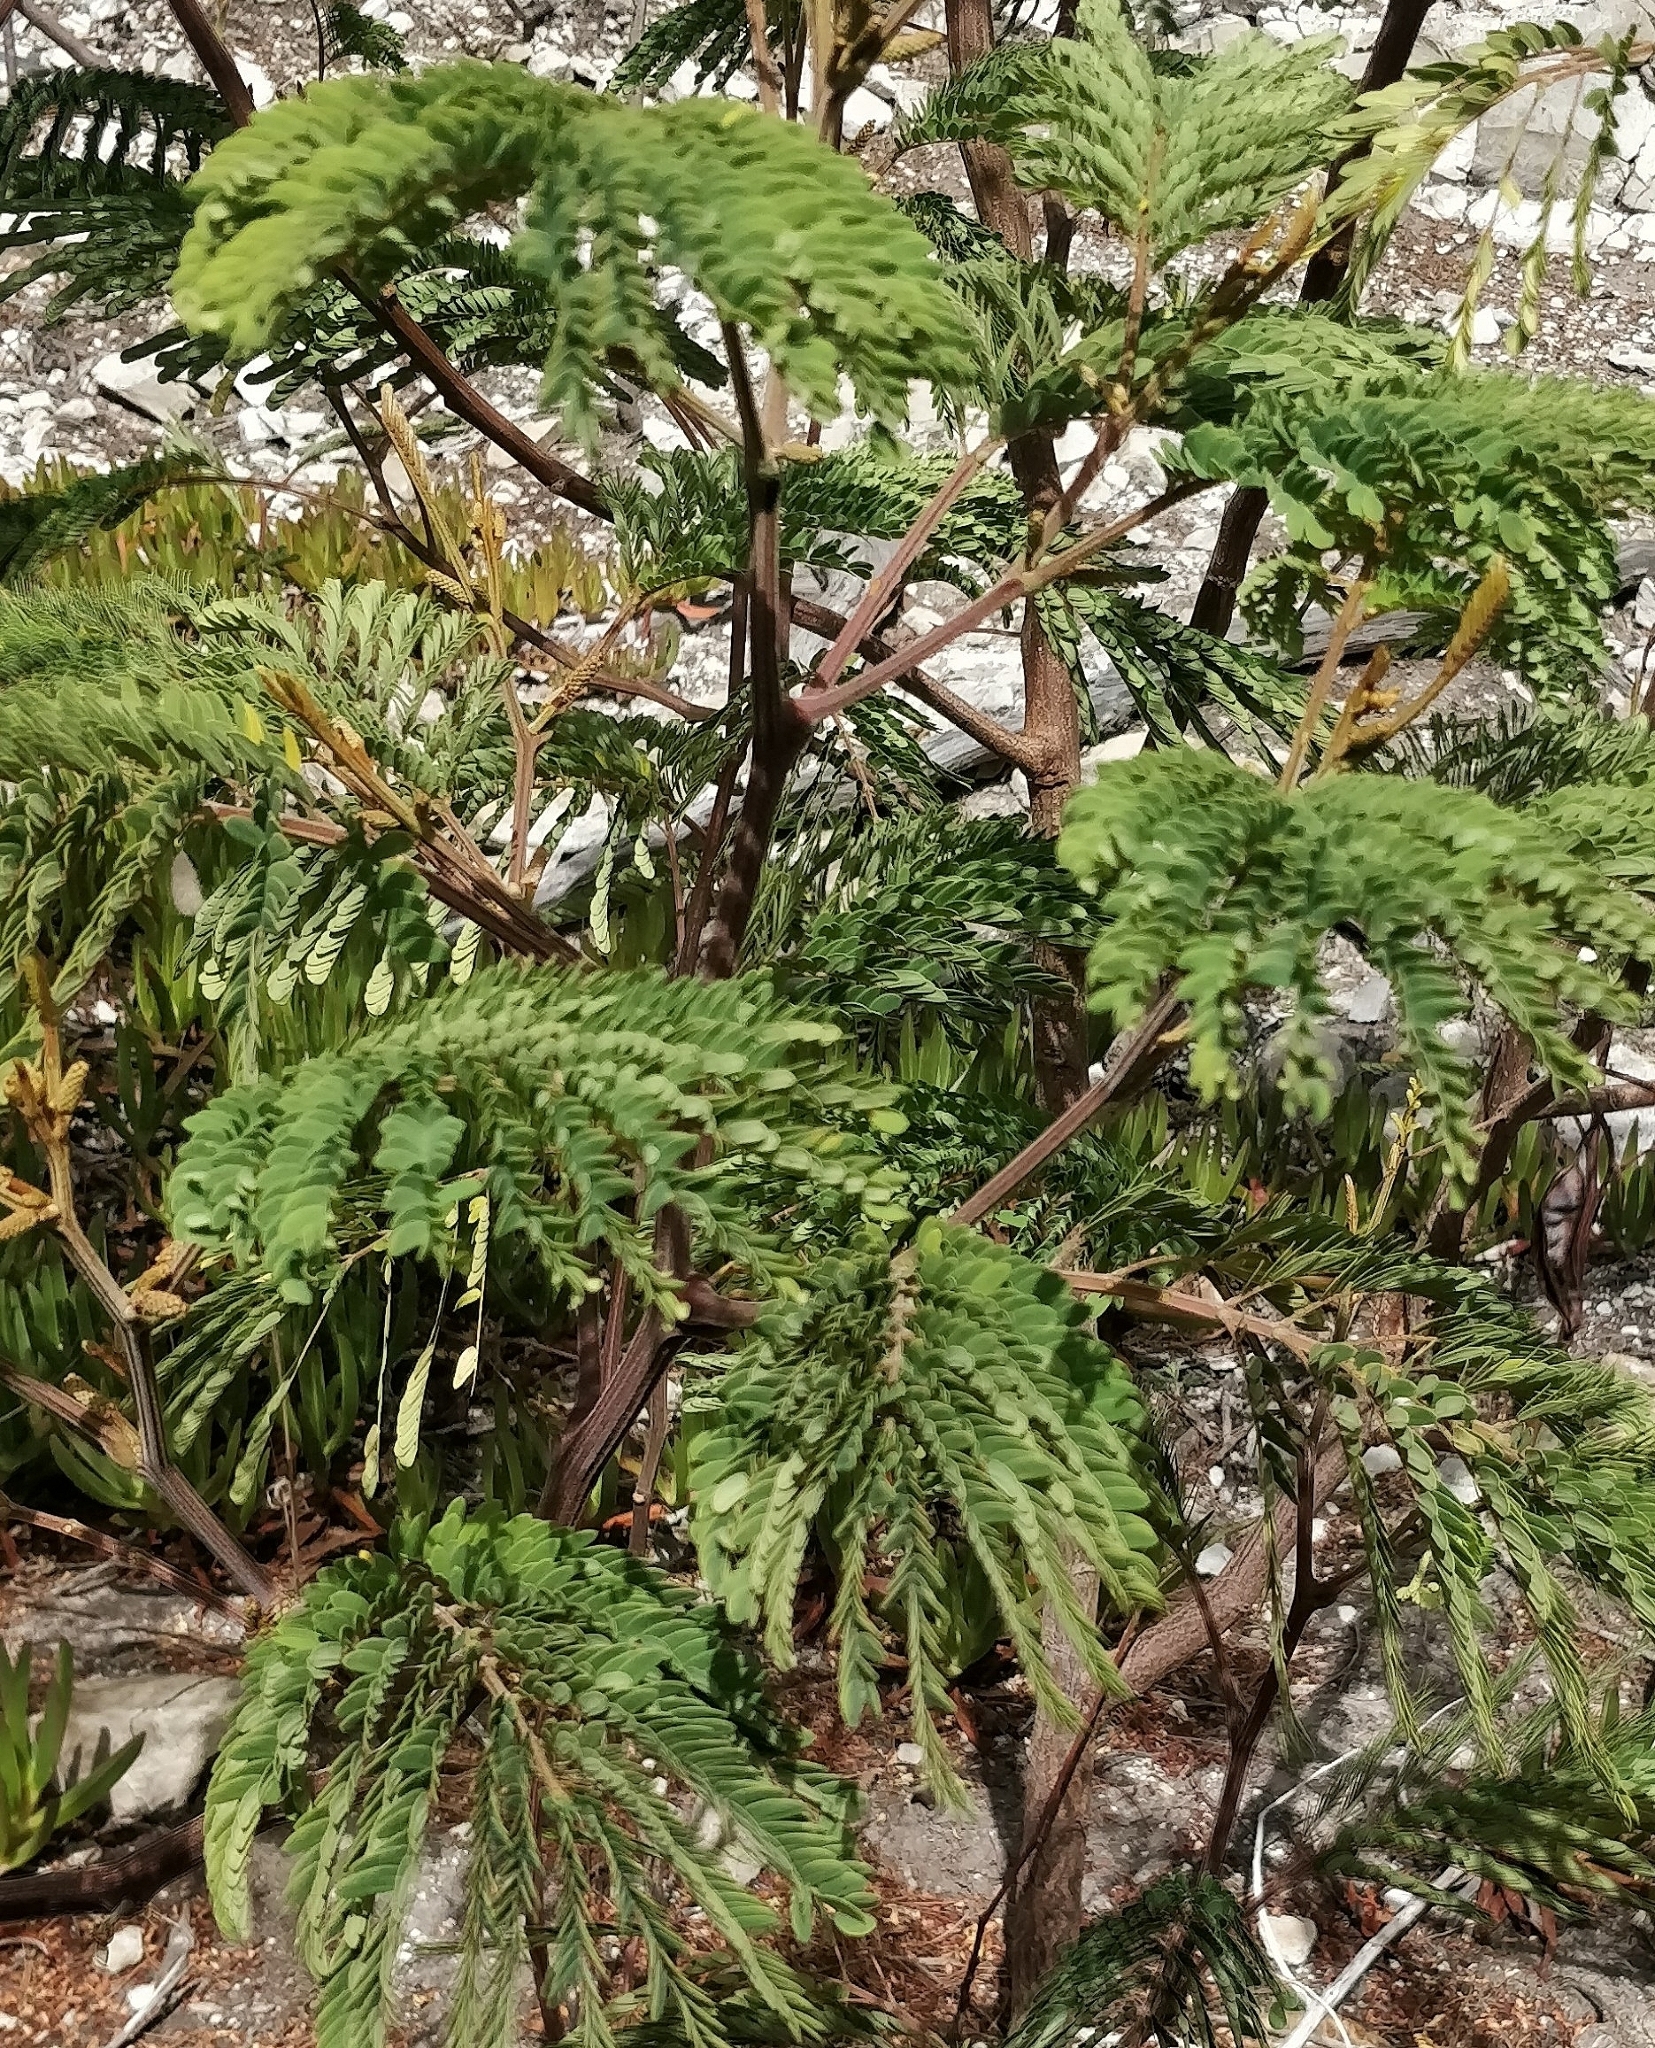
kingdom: Plantae
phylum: Tracheophyta
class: Magnoliopsida
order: Fabales
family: Fabaceae
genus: Paraserianthes
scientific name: Paraserianthes lophantha
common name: Plume albizia
